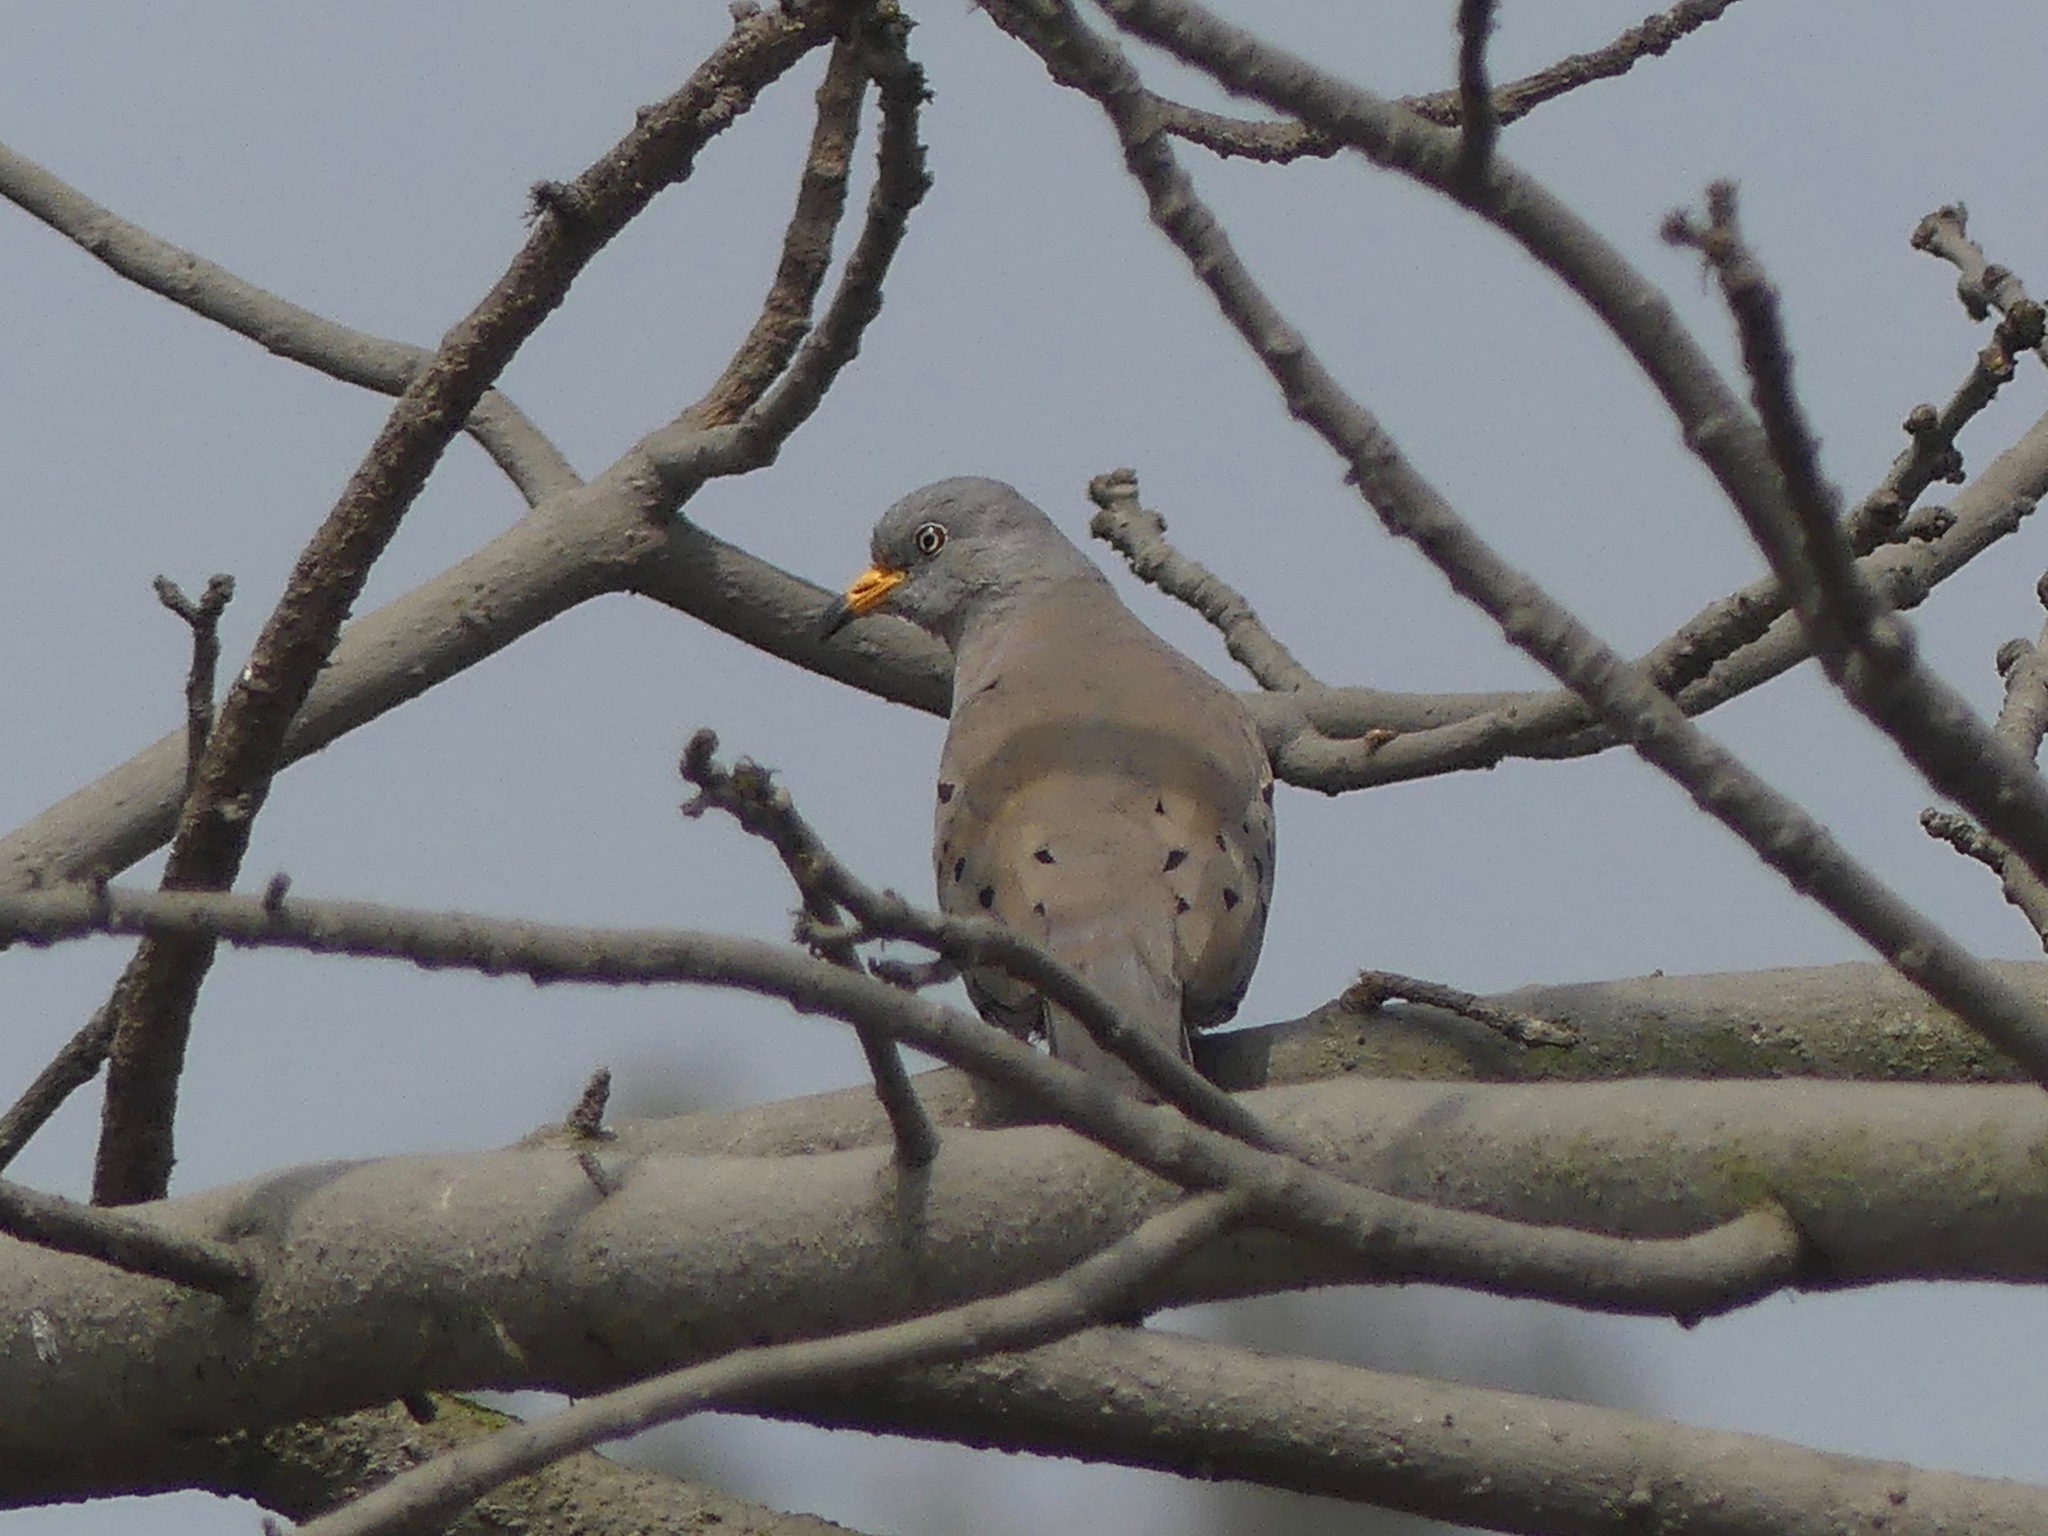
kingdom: Animalia
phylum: Chordata
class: Aves
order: Columbiformes
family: Columbidae
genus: Columbina
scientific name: Columbina cruziana
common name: Croaking ground dove
